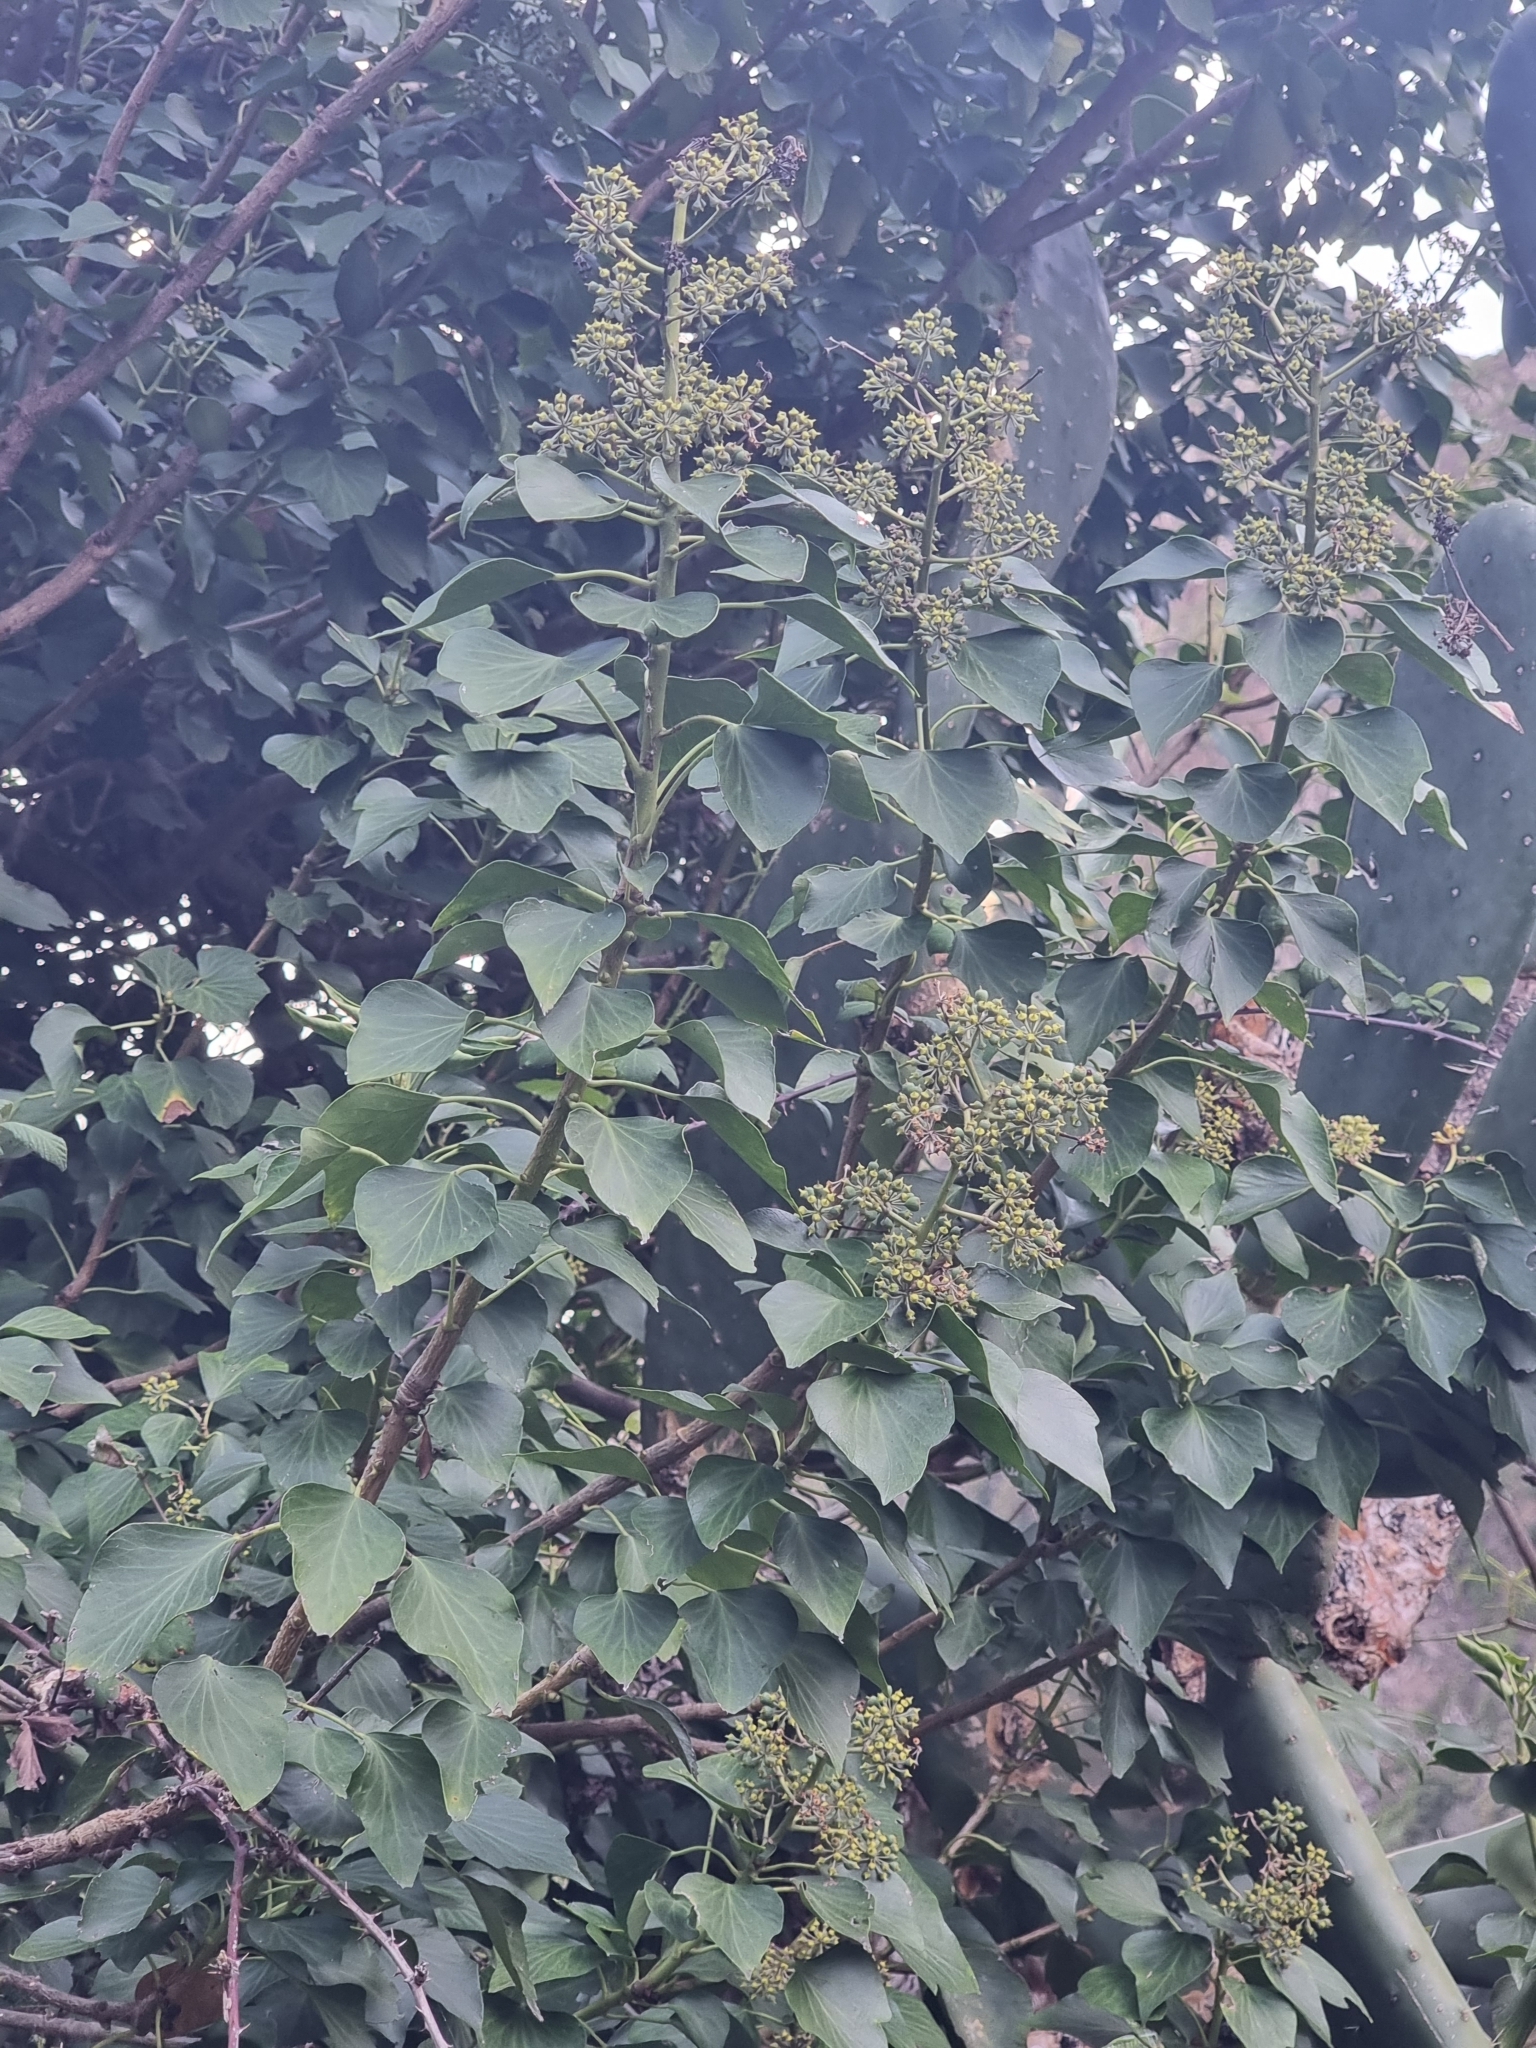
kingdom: Plantae
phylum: Tracheophyta
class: Magnoliopsida
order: Apiales
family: Araliaceae
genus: Hedera
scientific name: Hedera maderensis
